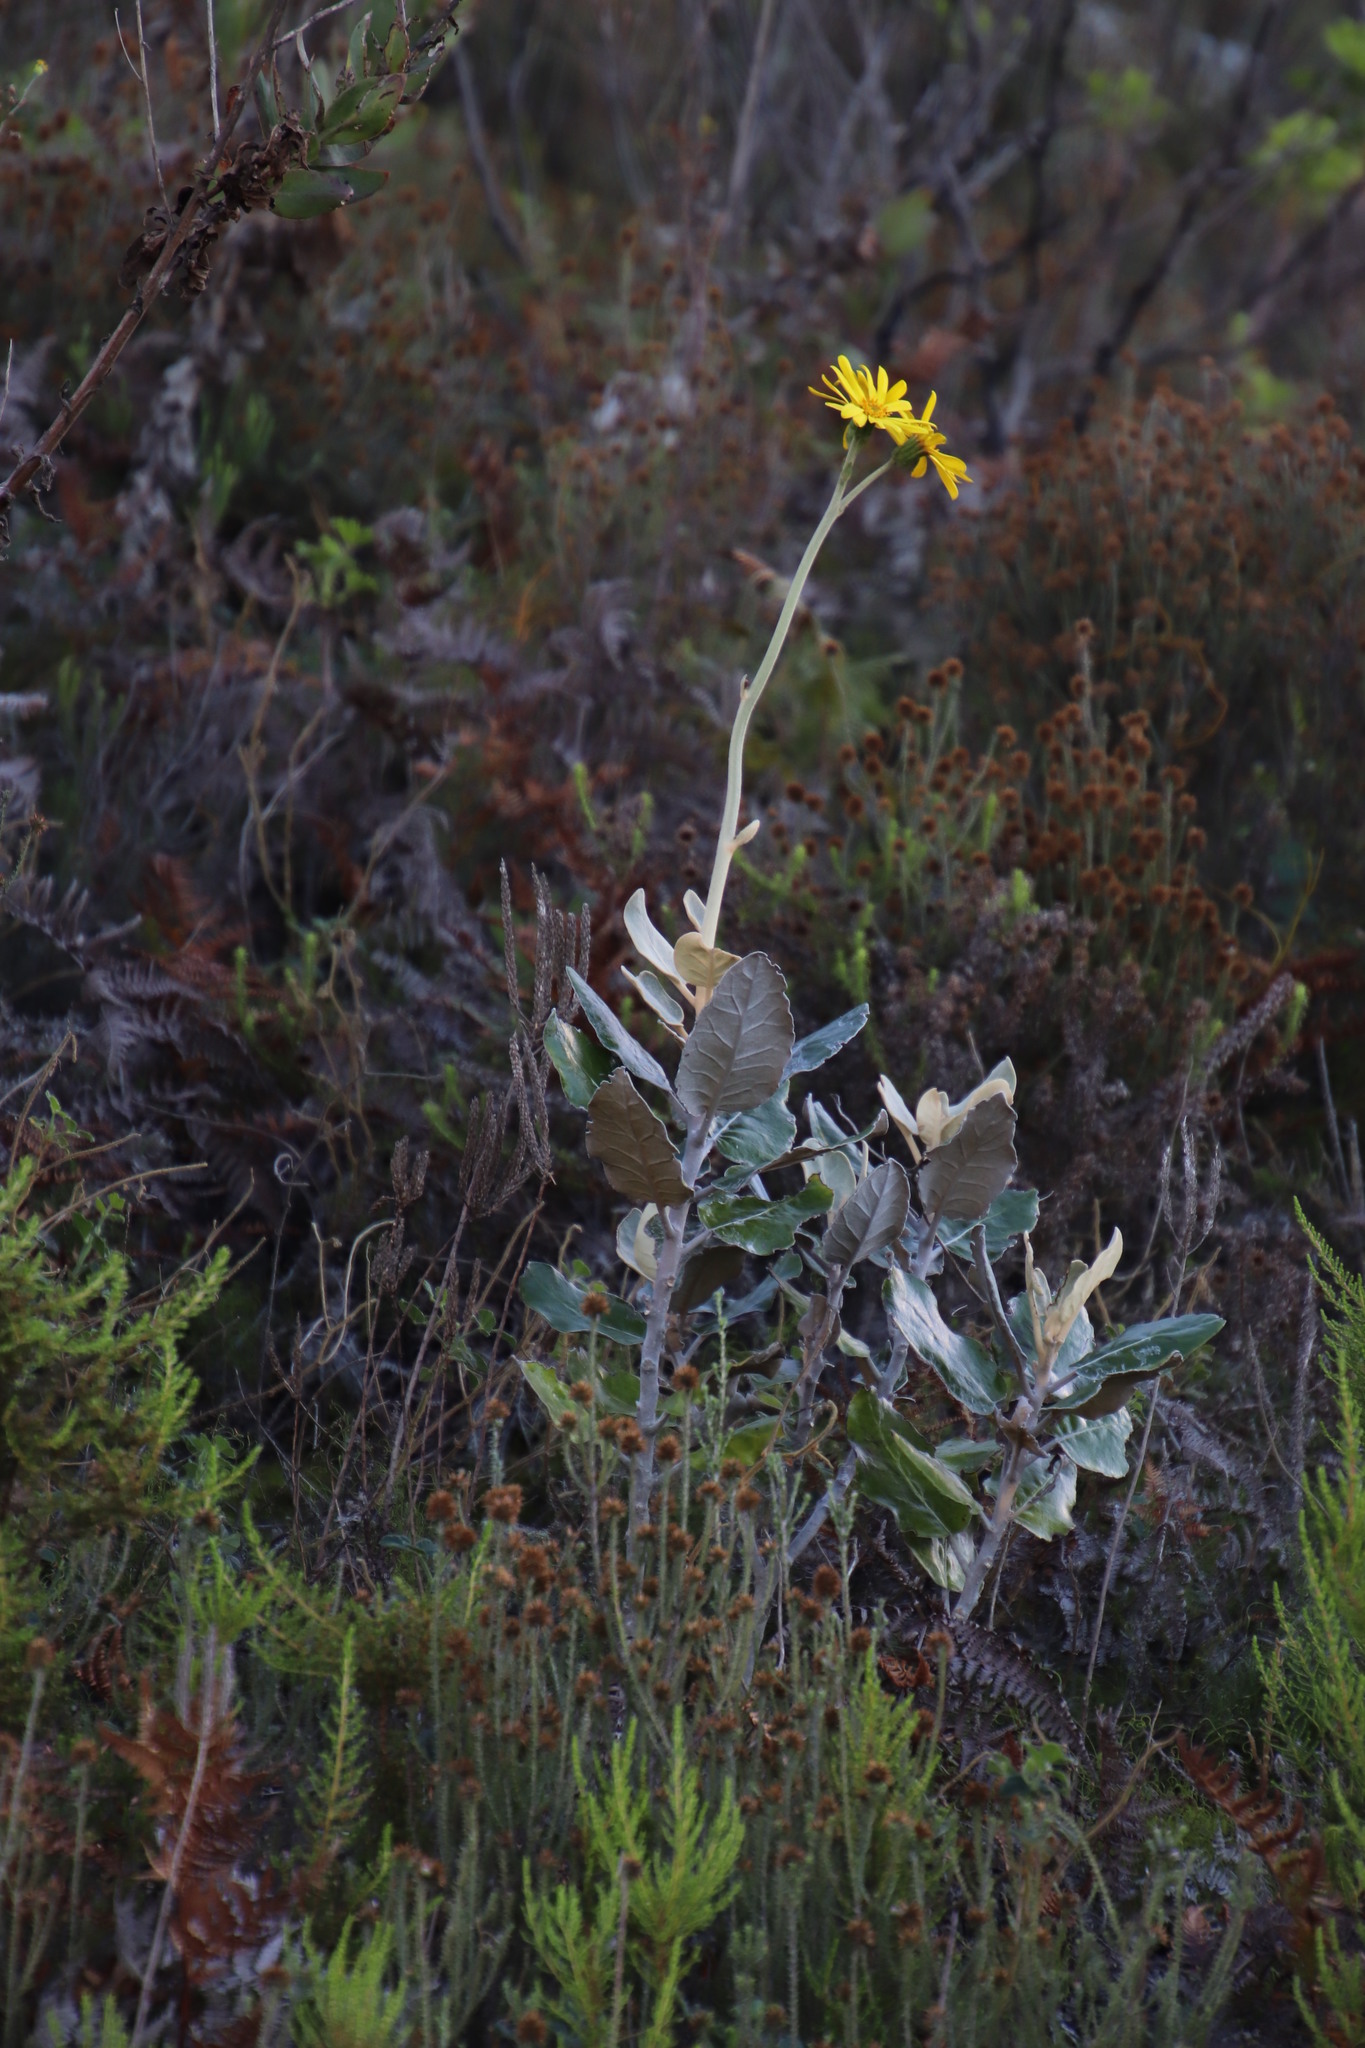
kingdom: Plantae
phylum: Tracheophyta
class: Magnoliopsida
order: Asterales
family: Asteraceae
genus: Capelio
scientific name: Capelio tabularis
